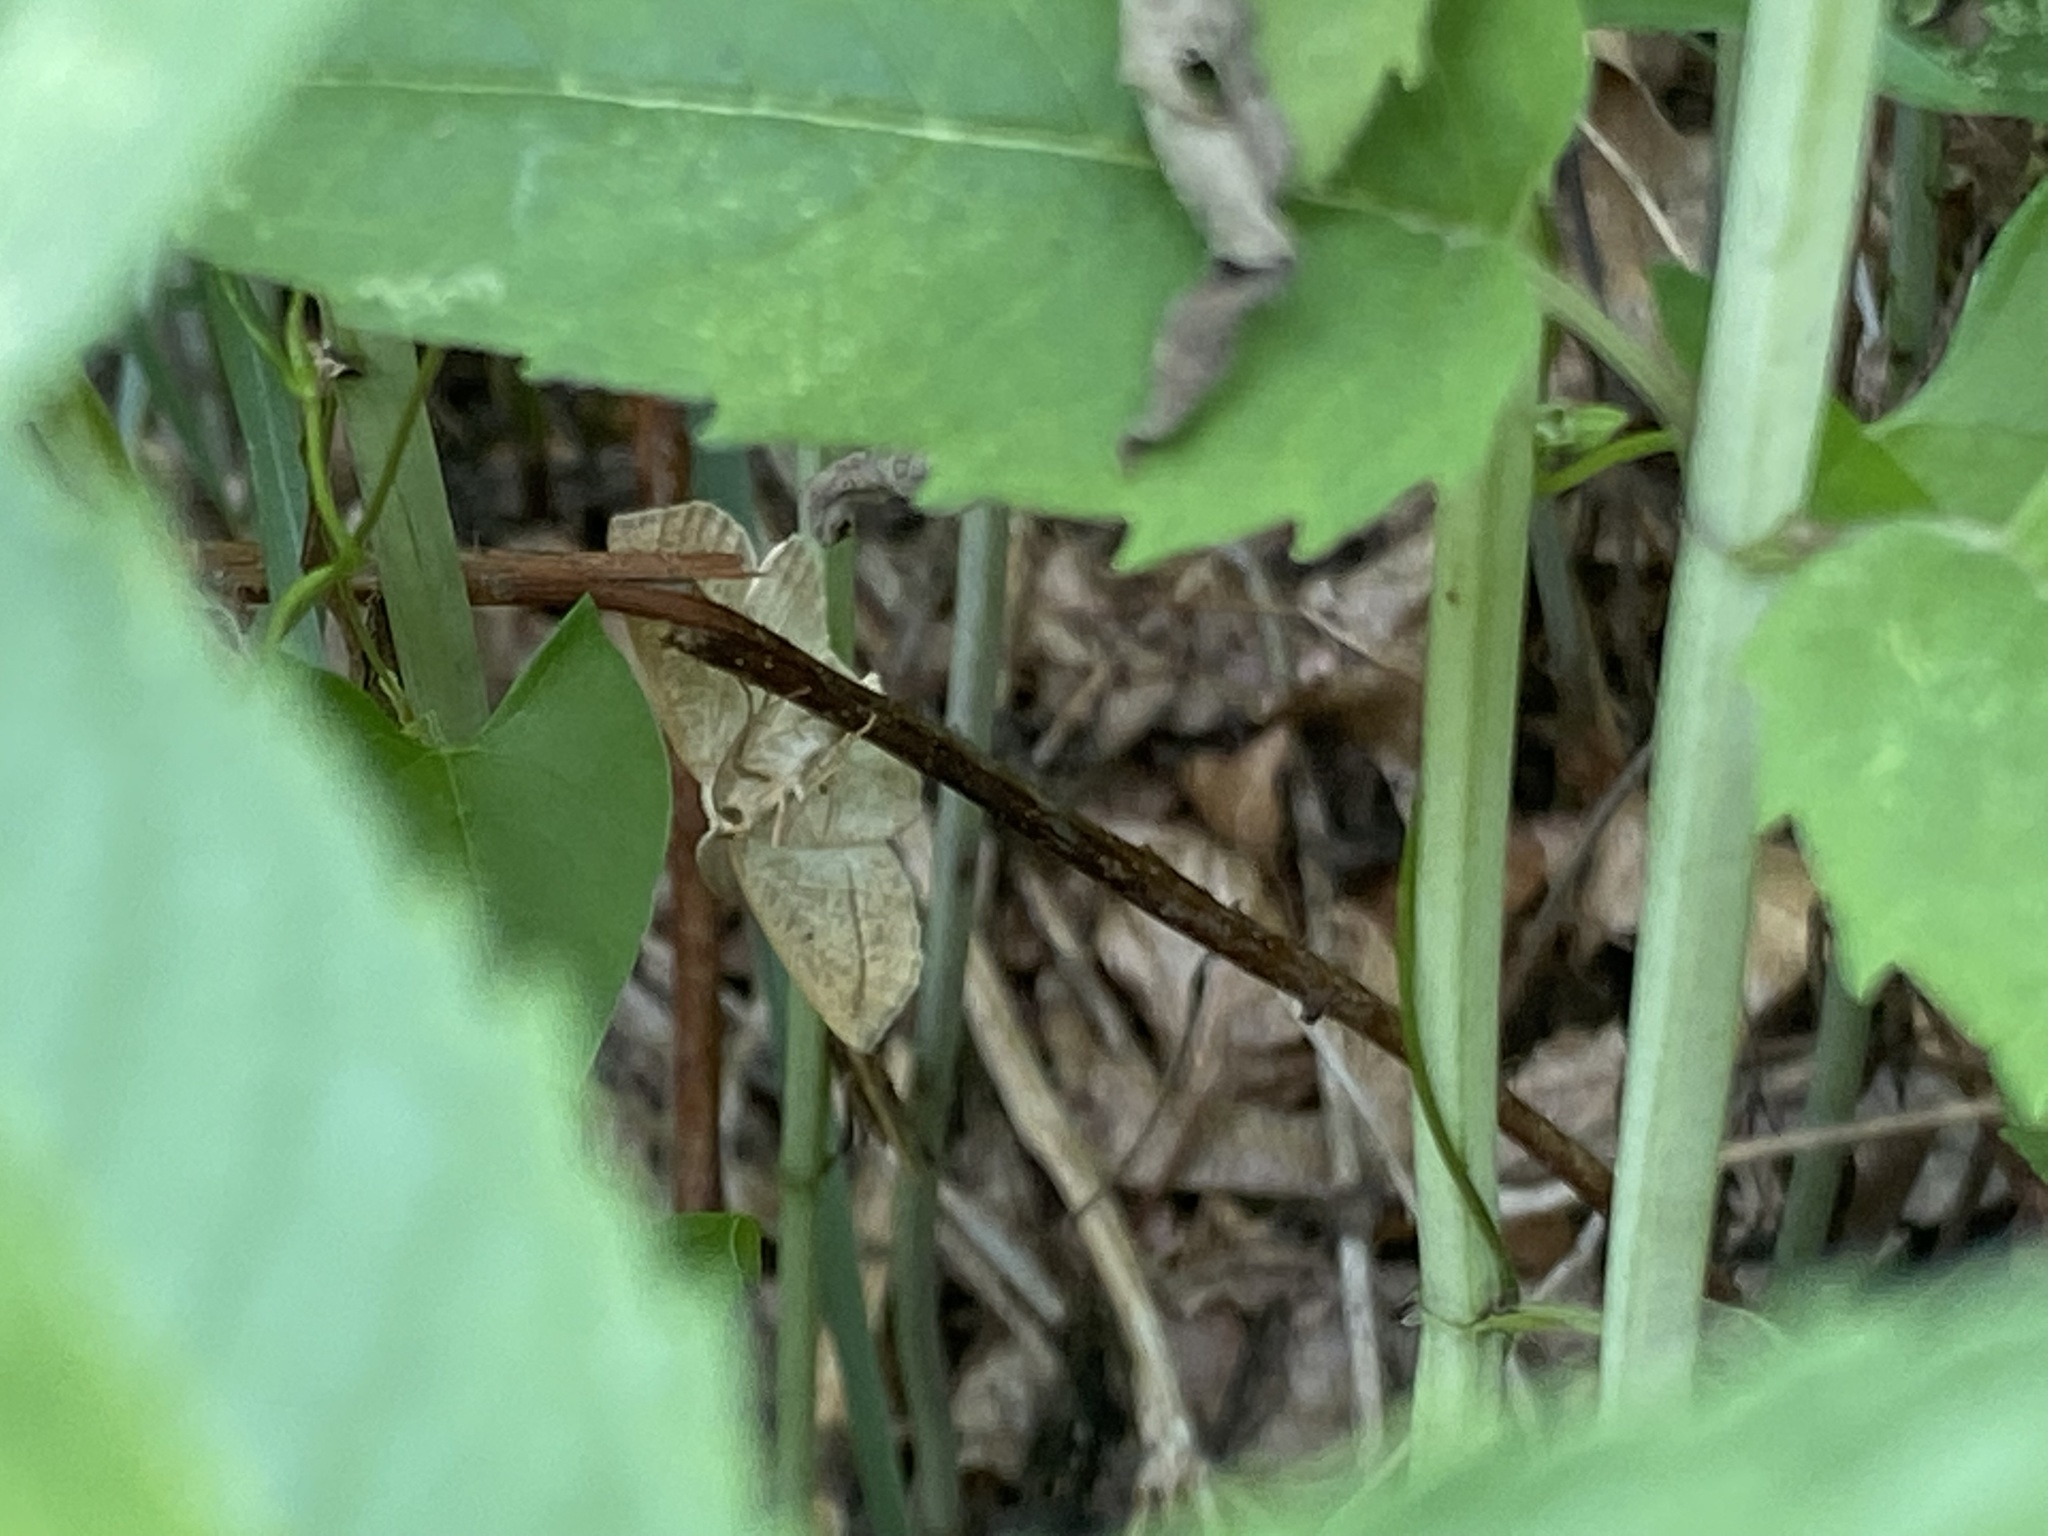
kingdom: Animalia
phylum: Arthropoda
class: Insecta
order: Lepidoptera
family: Geometridae
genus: Eusarca
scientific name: Eusarca confusaria
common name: Confused eusarca
